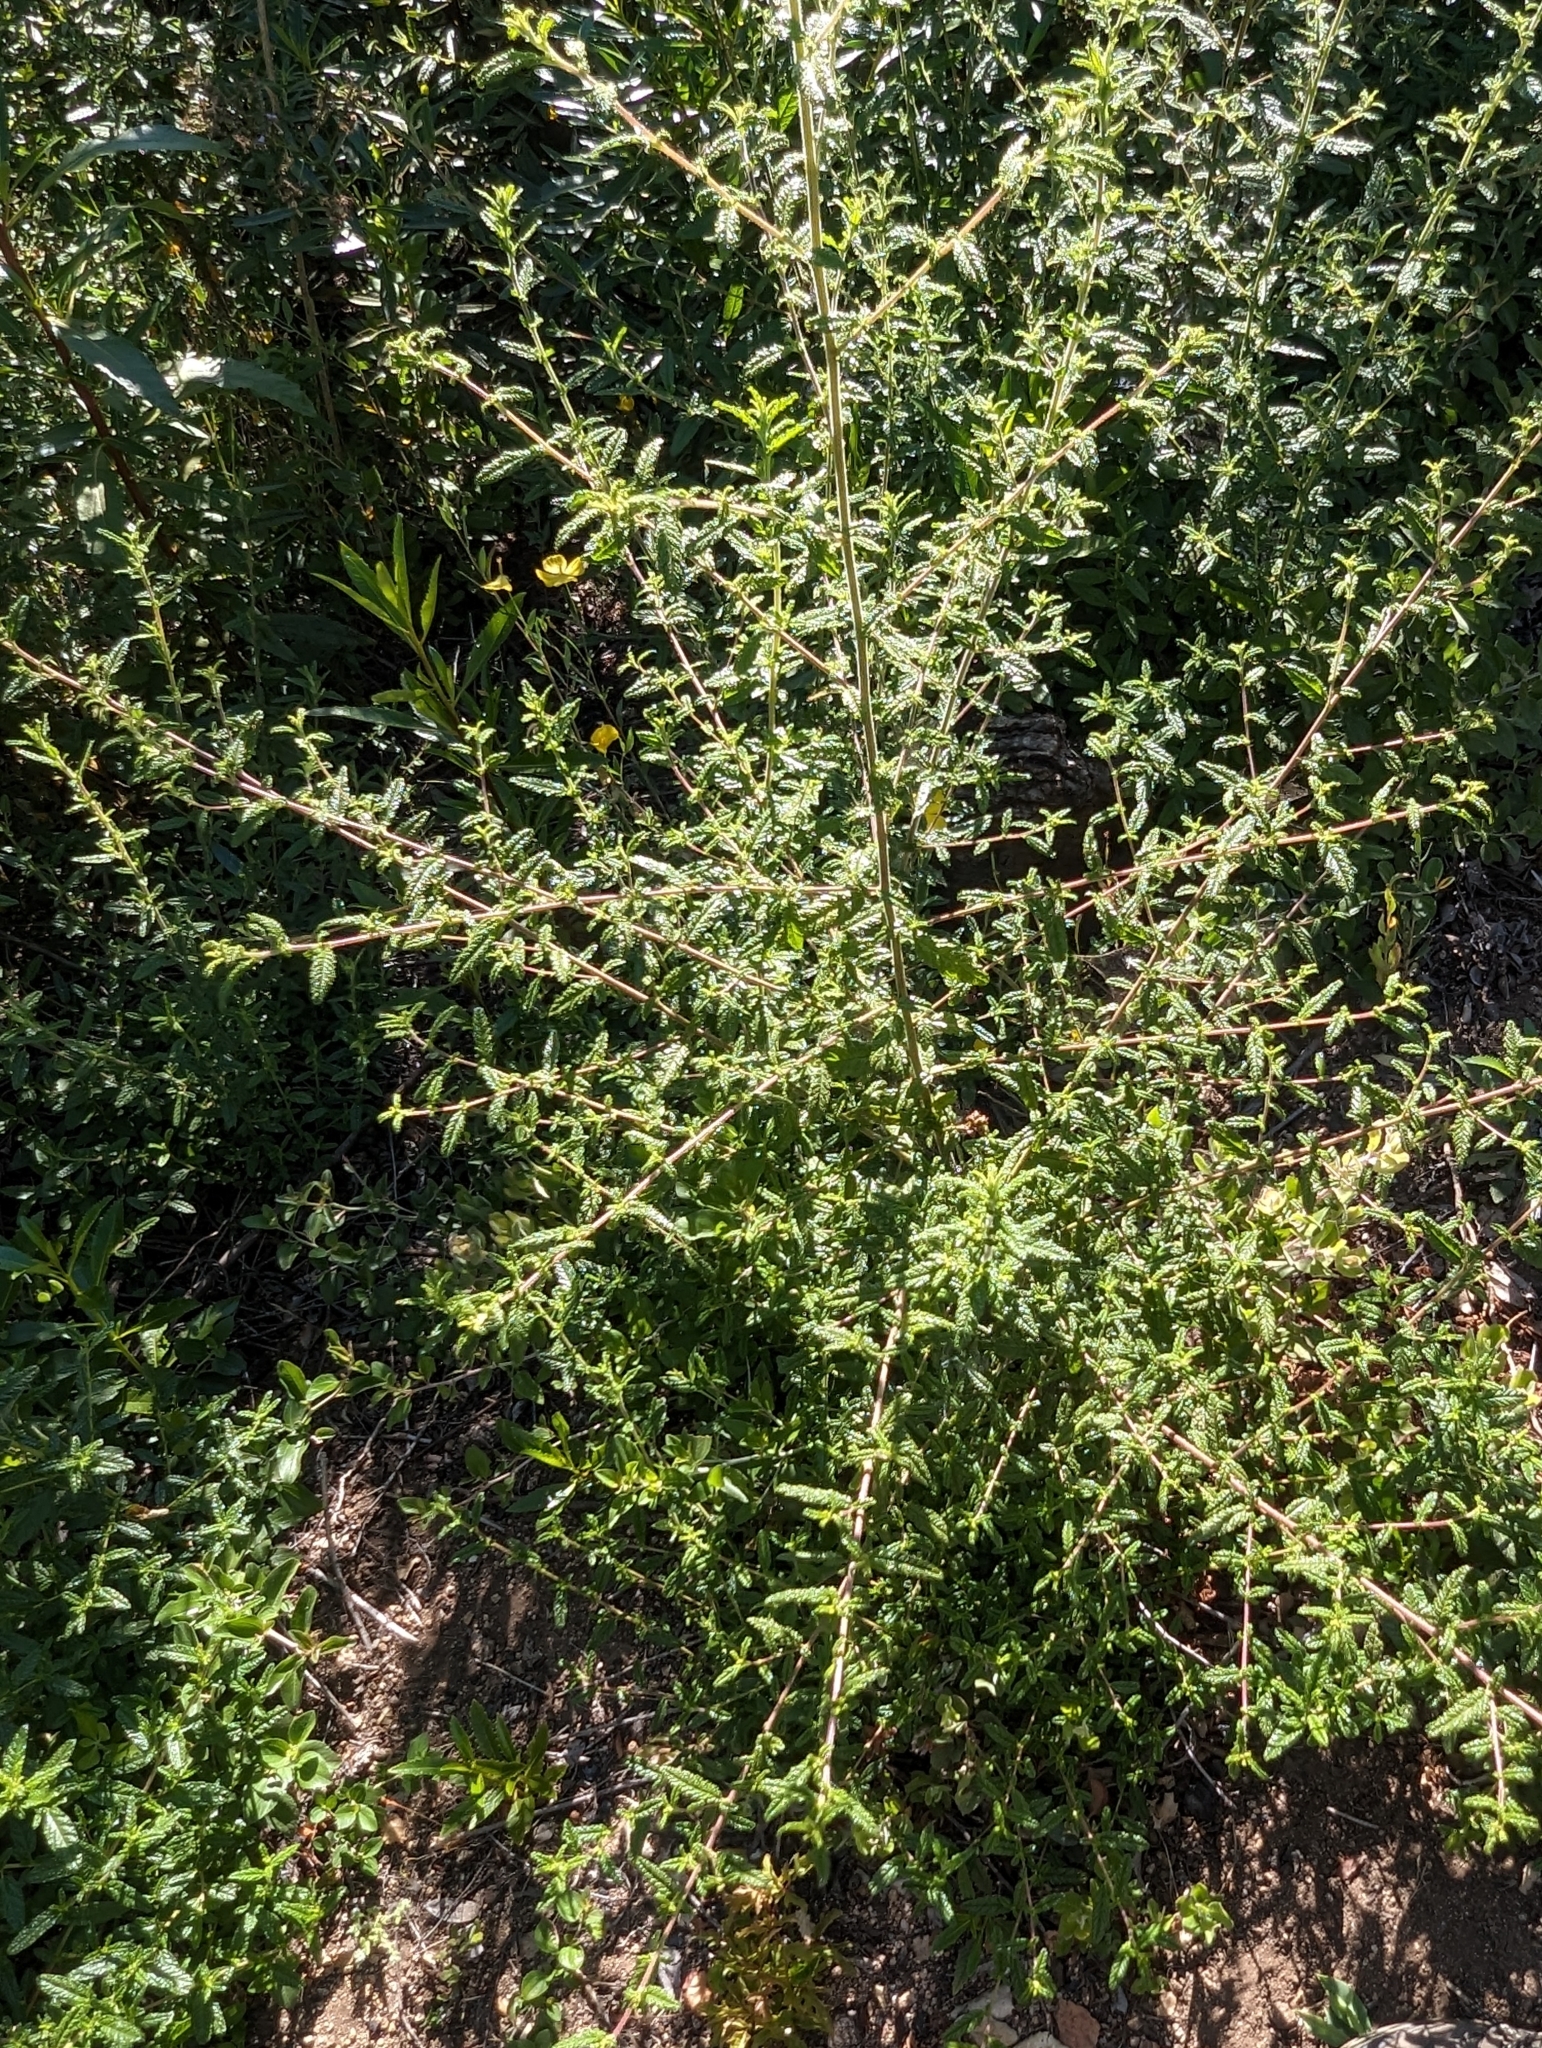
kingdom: Plantae
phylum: Tracheophyta
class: Magnoliopsida
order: Rosales
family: Rhamnaceae
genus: Ceanothus
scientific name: Ceanothus papillosus
